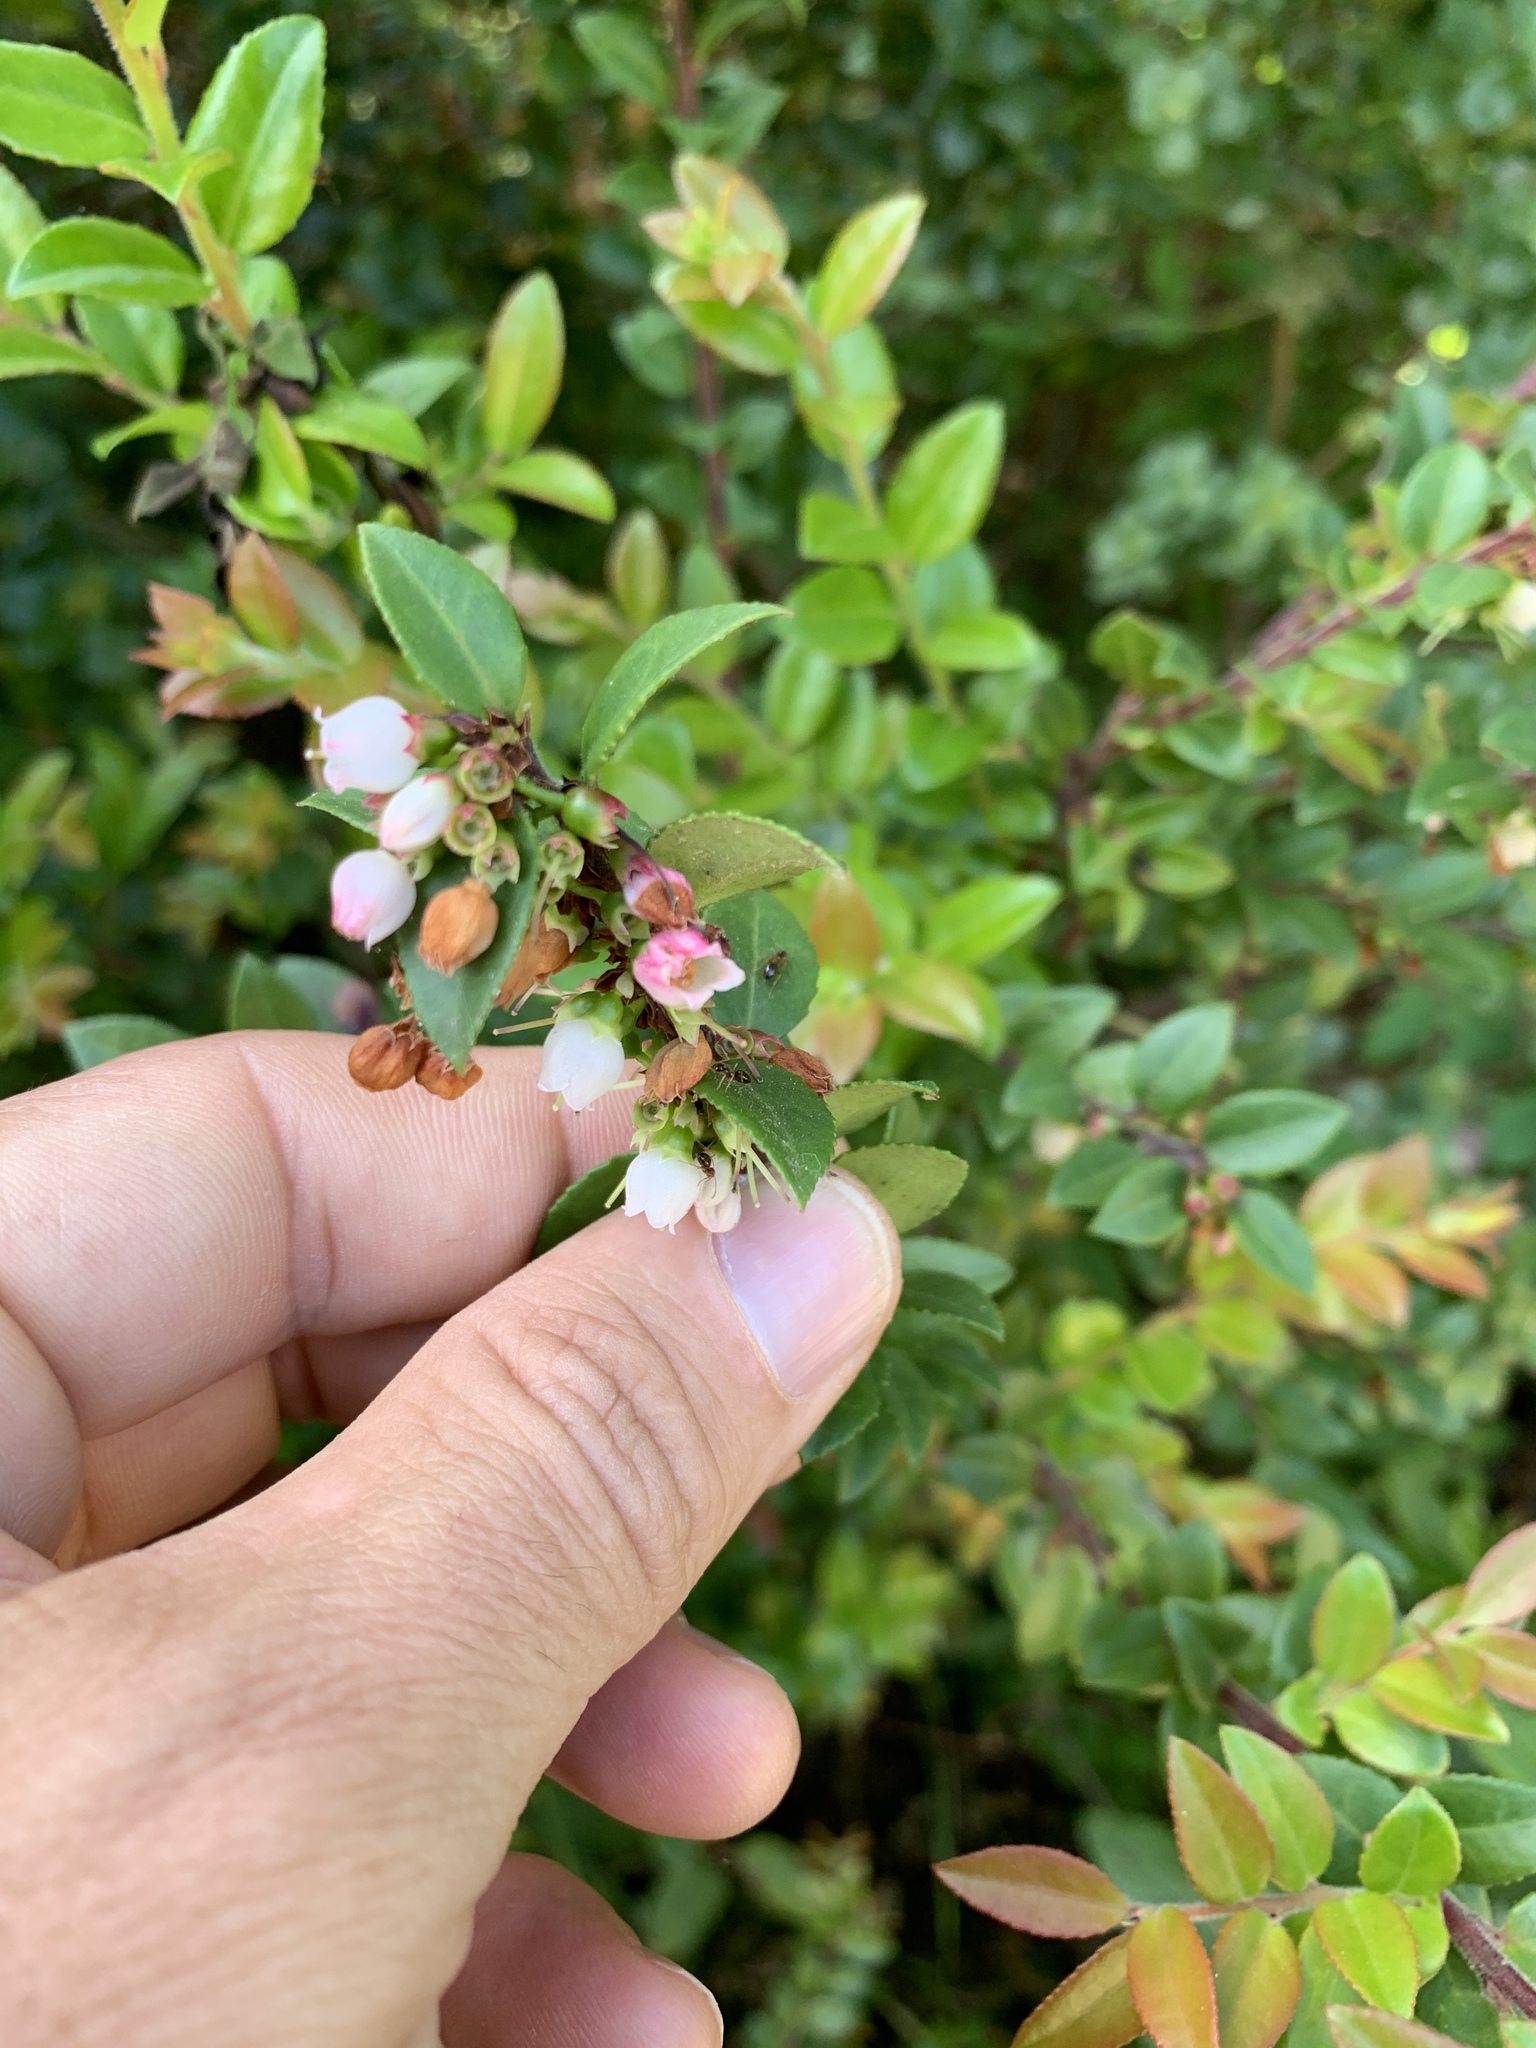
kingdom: Plantae
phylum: Tracheophyta
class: Magnoliopsida
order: Ericales
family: Ericaceae
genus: Vaccinium
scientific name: Vaccinium ovatum
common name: California-huckleberry
